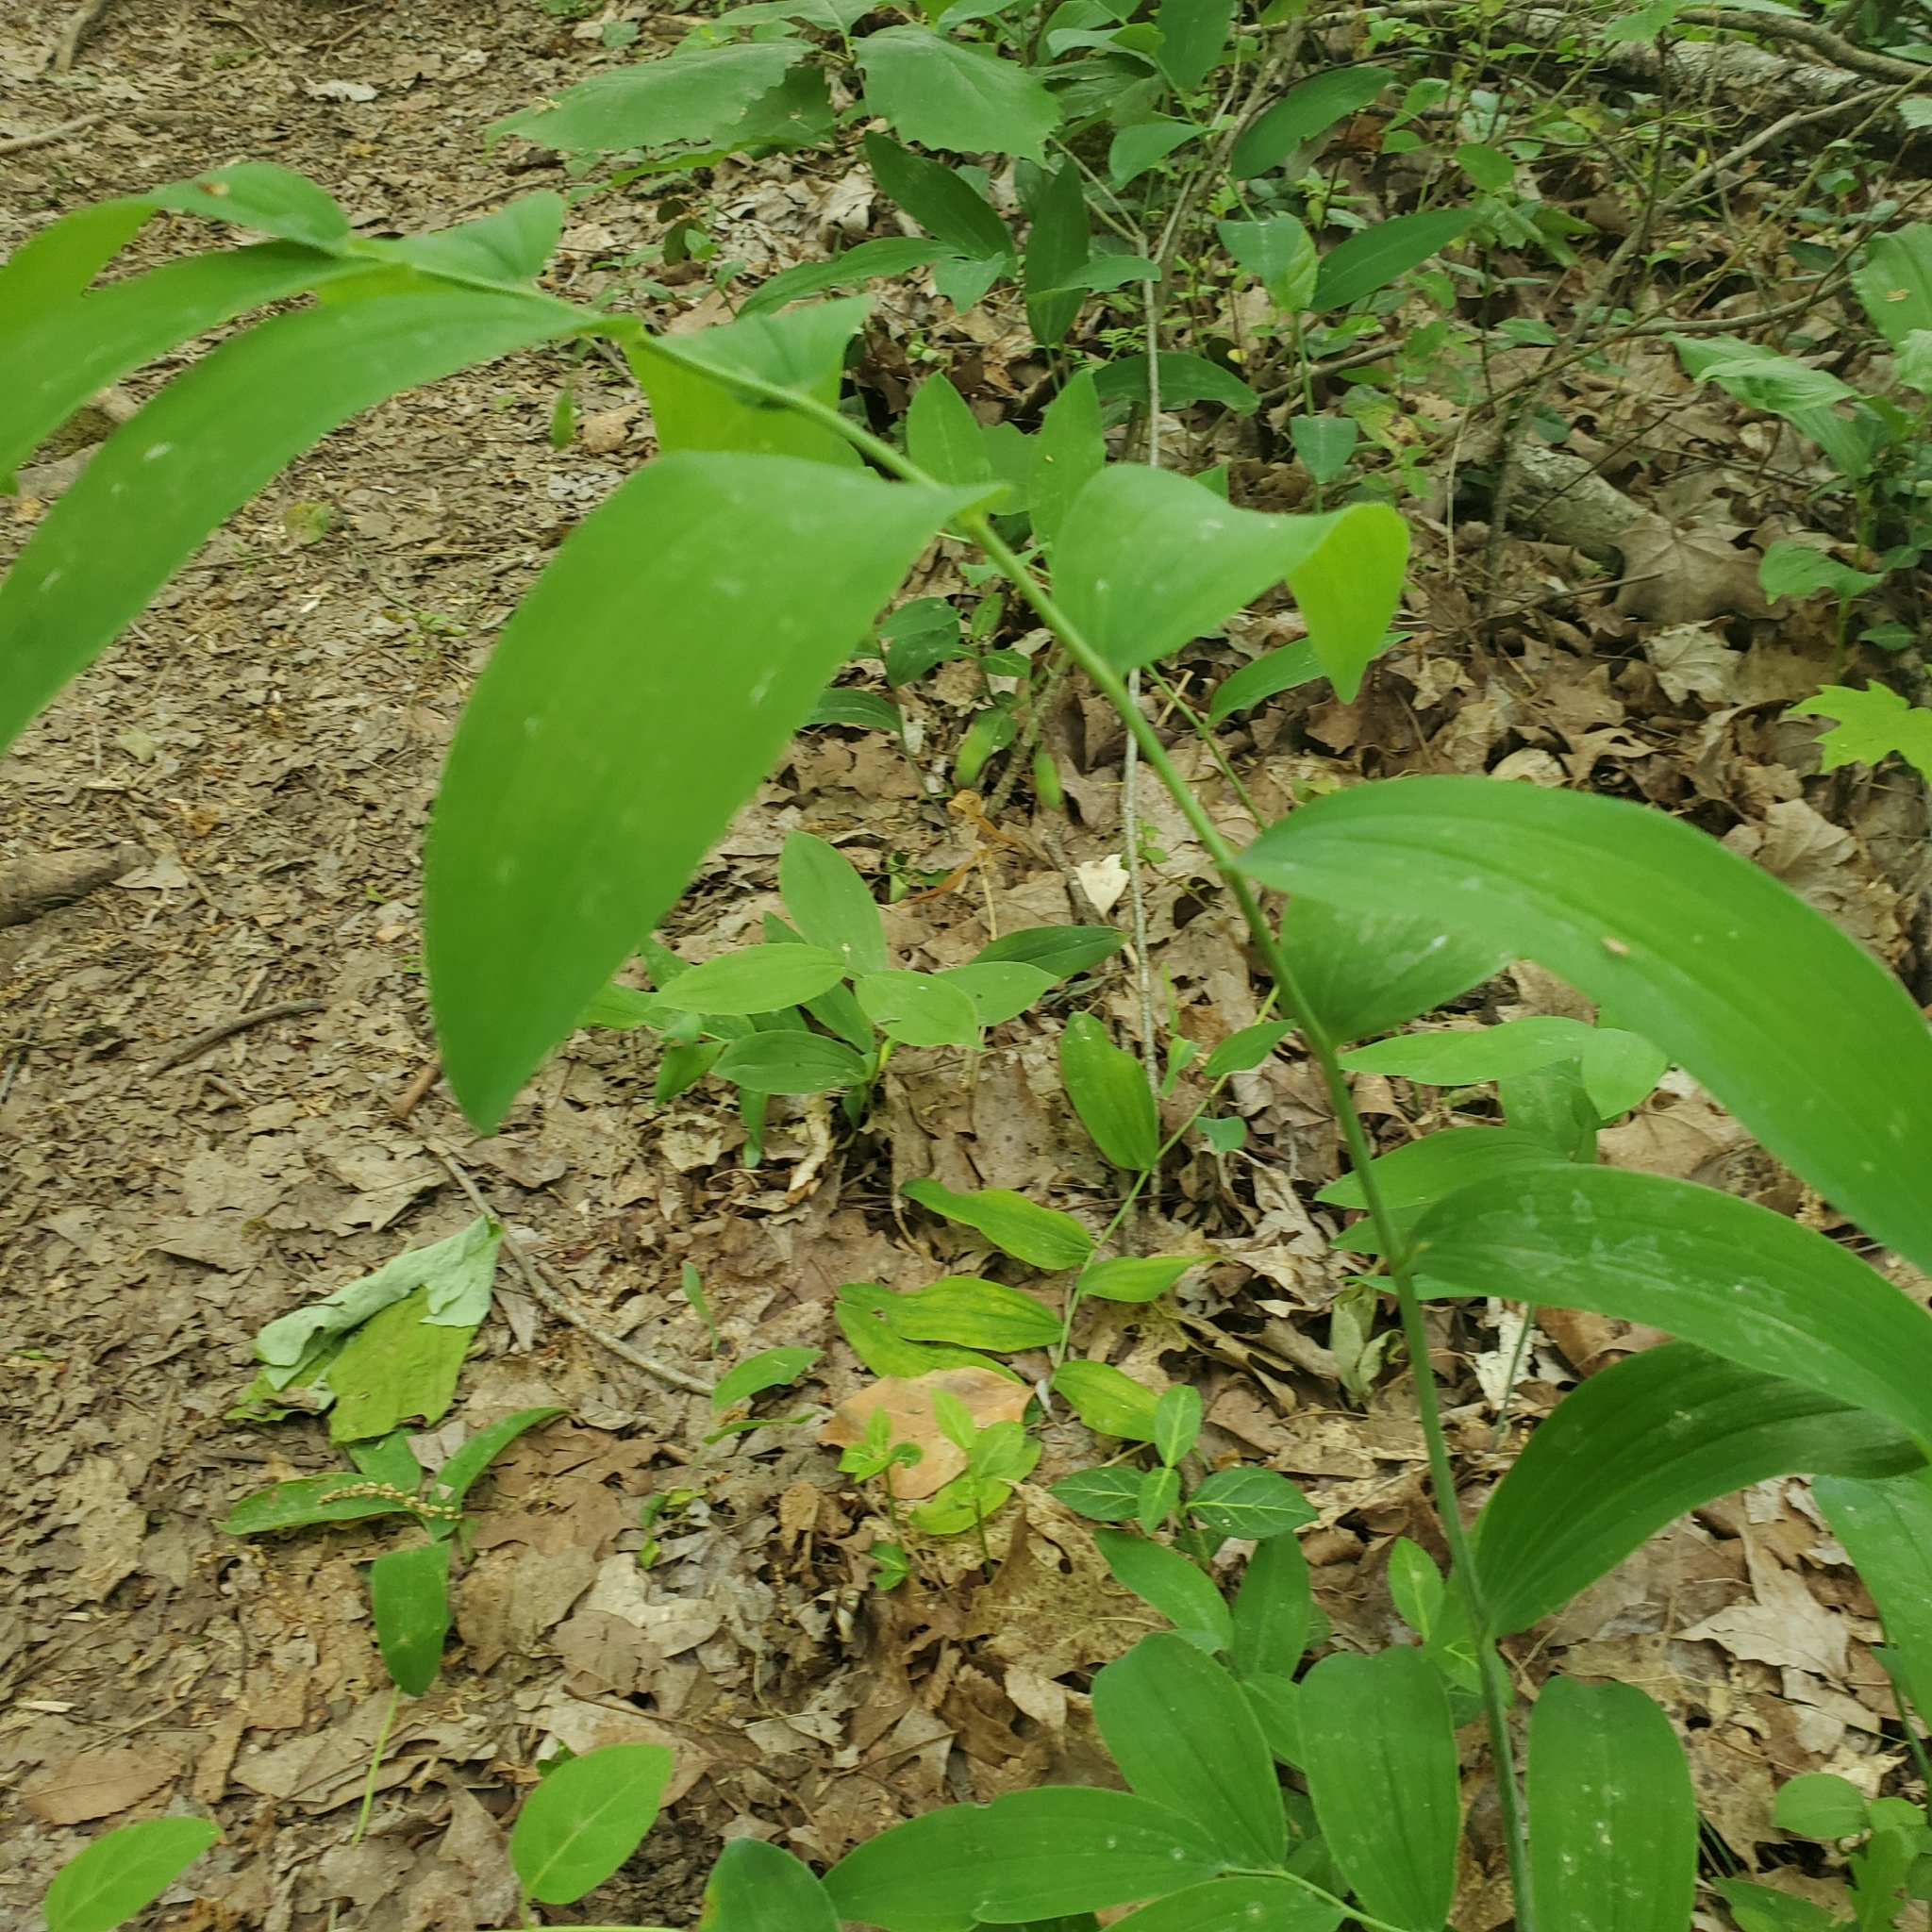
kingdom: Plantae
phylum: Tracheophyta
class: Liliopsida
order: Asparagales
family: Asparagaceae
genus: Polygonatum
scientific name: Polygonatum biflorum
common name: American solomon's-seal
